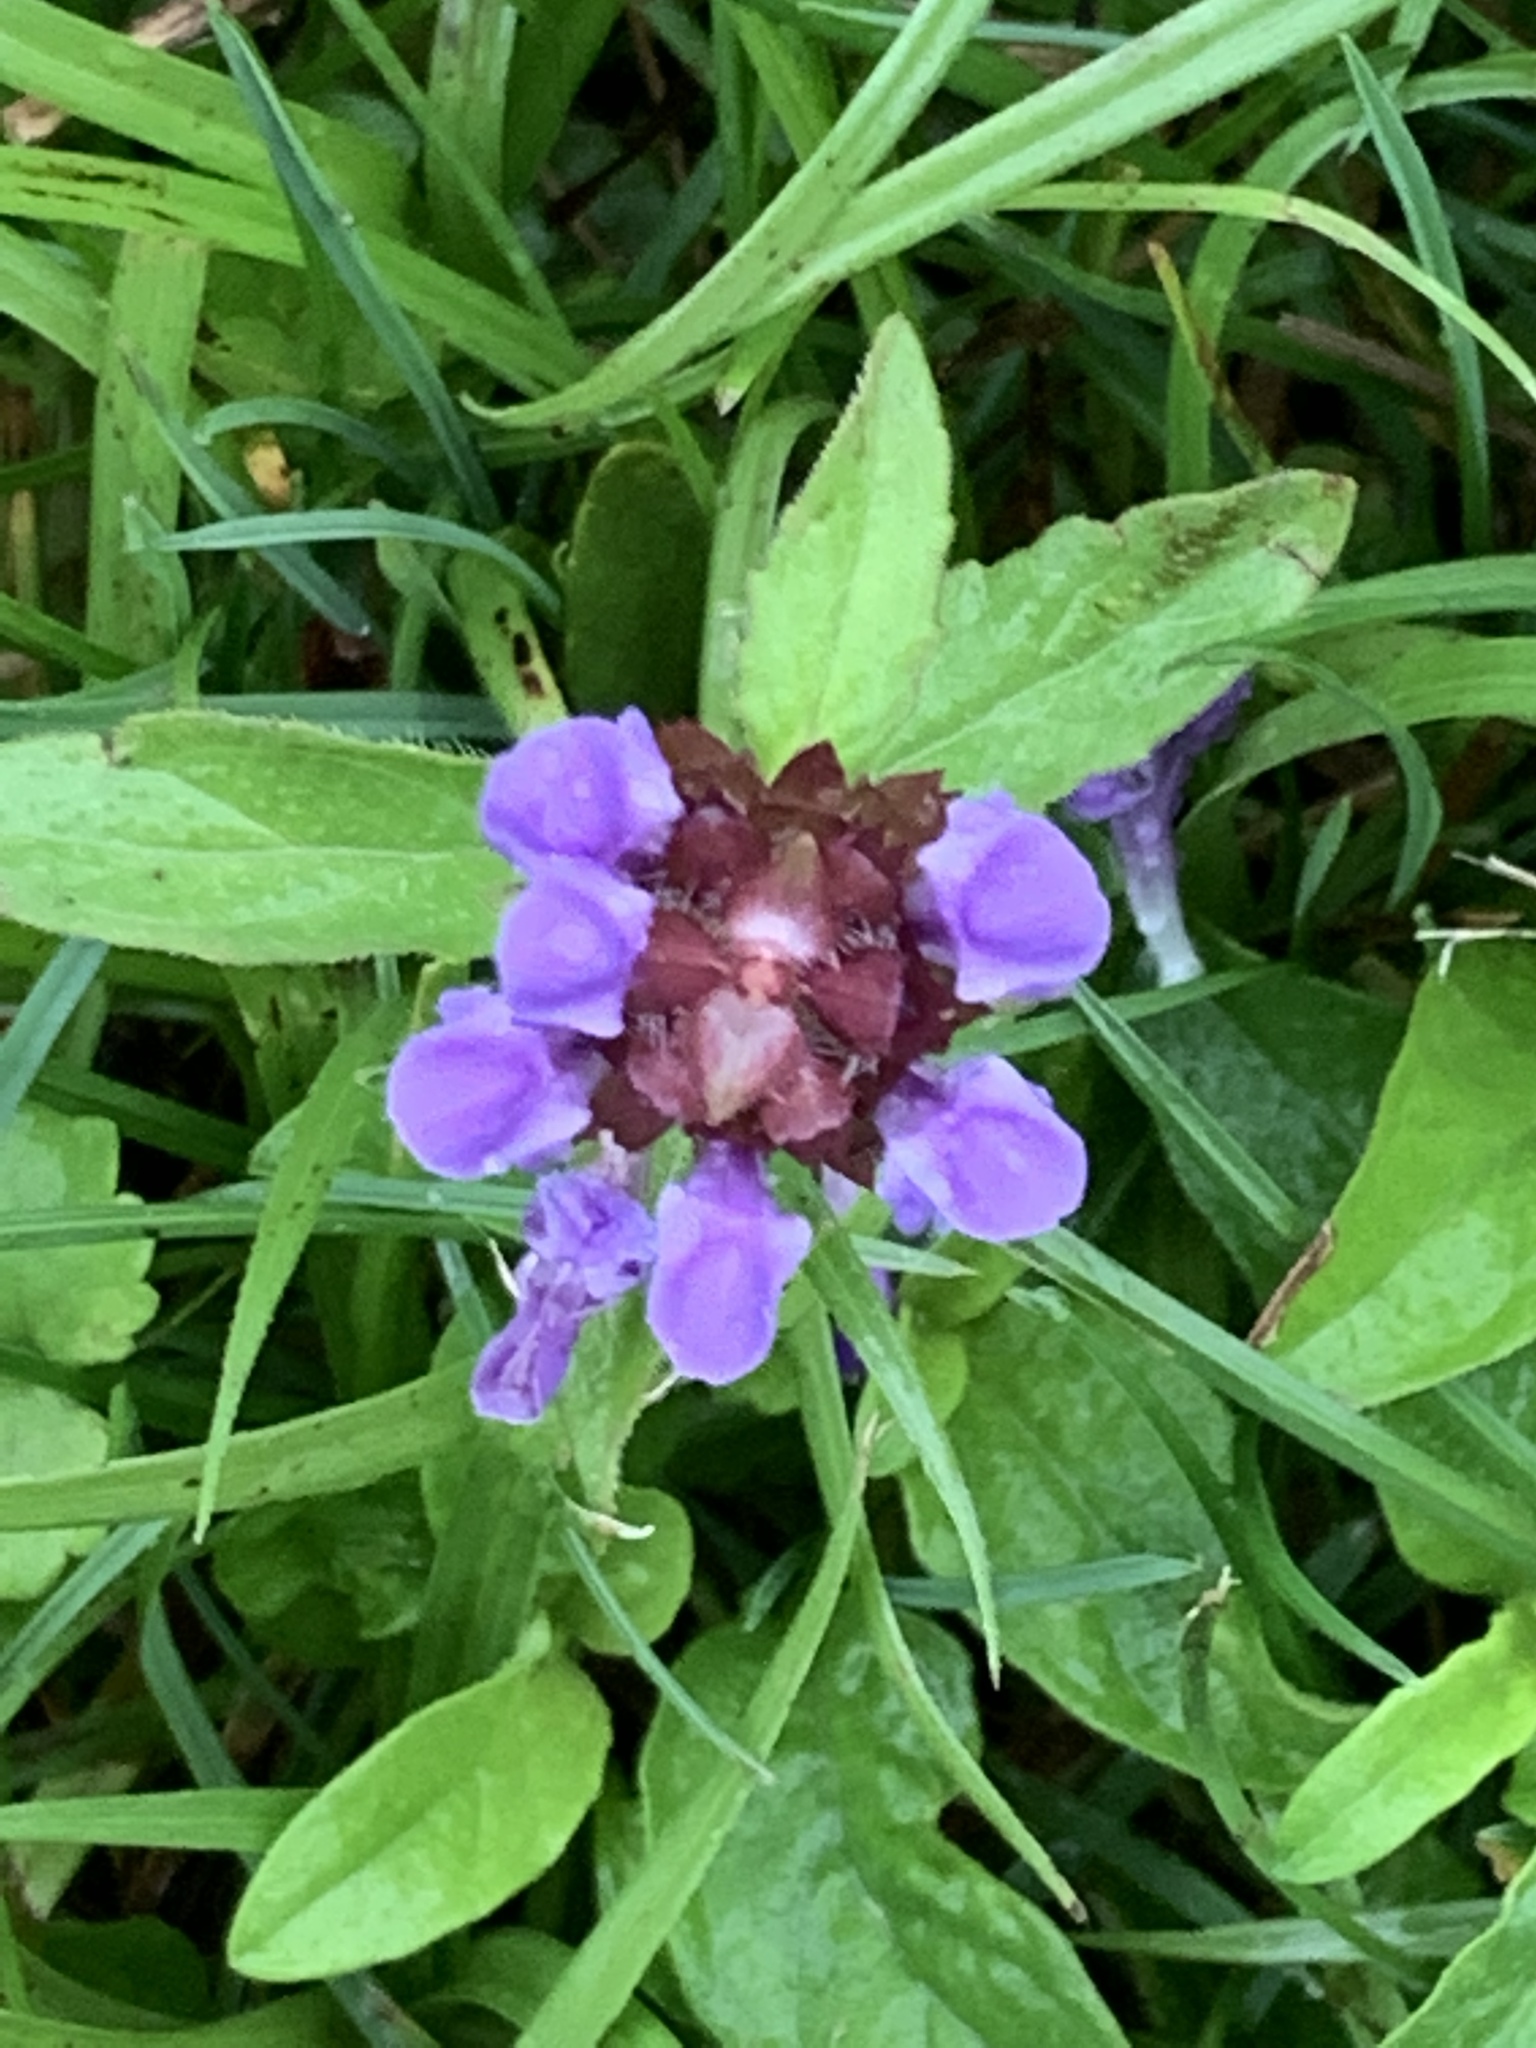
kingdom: Plantae
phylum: Tracheophyta
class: Magnoliopsida
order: Lamiales
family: Lamiaceae
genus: Prunella
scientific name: Prunella vulgaris
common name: Heal-all
